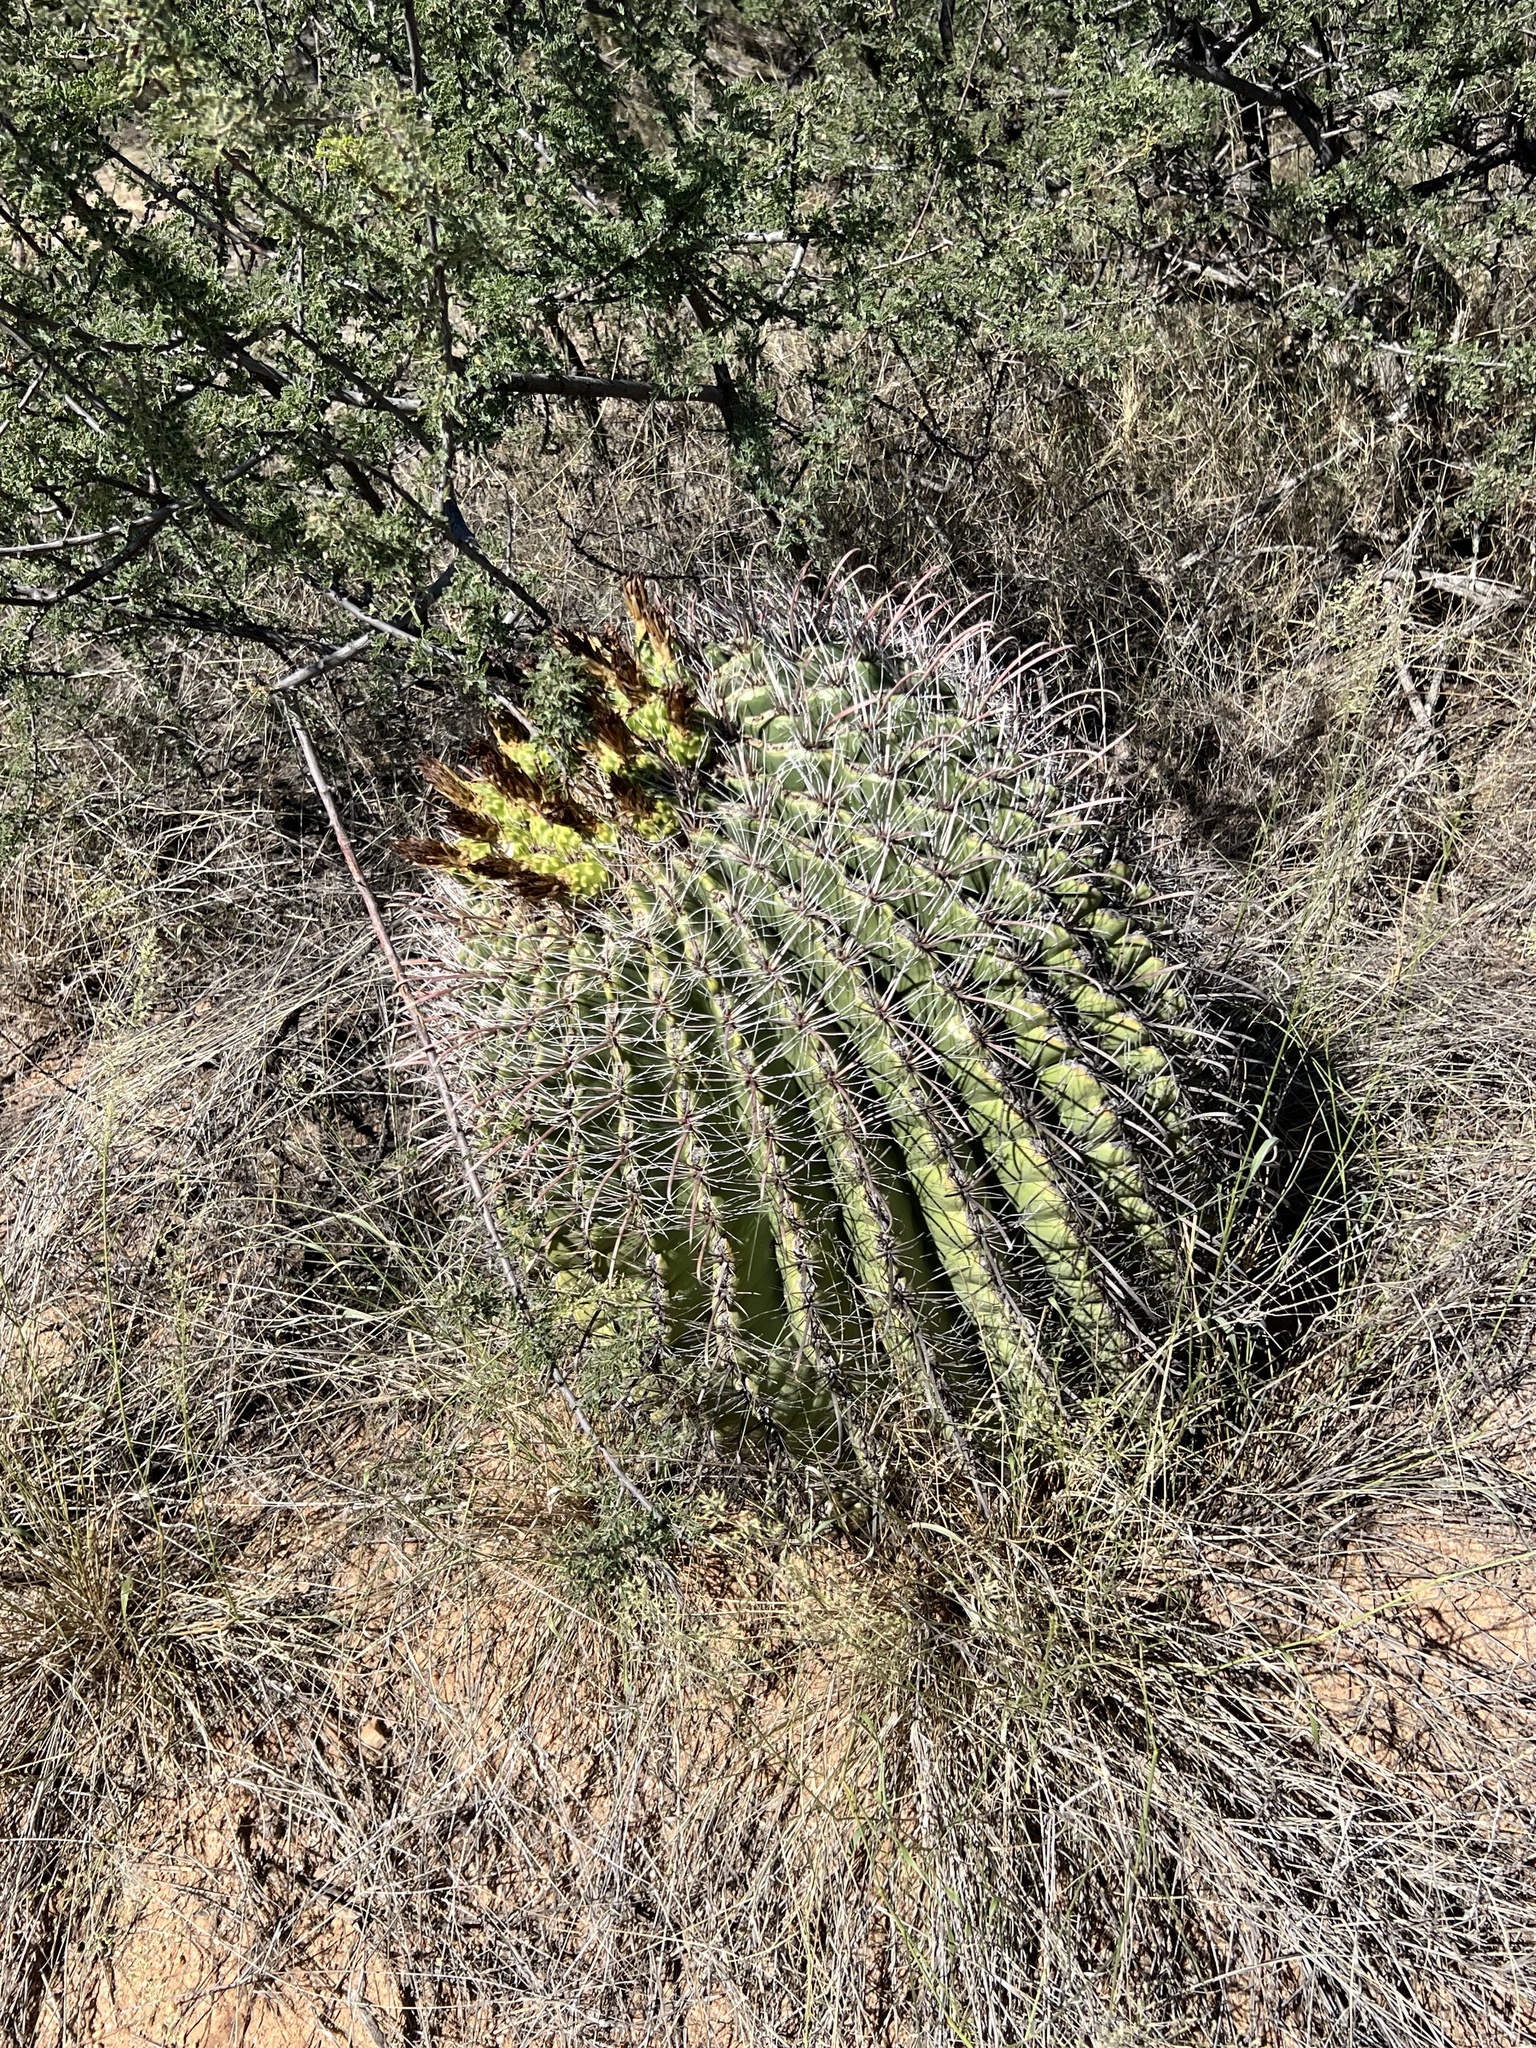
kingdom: Plantae
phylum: Tracheophyta
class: Magnoliopsida
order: Caryophyllales
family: Cactaceae
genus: Ferocactus
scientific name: Ferocactus wislizeni
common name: Candy barrel cactus
